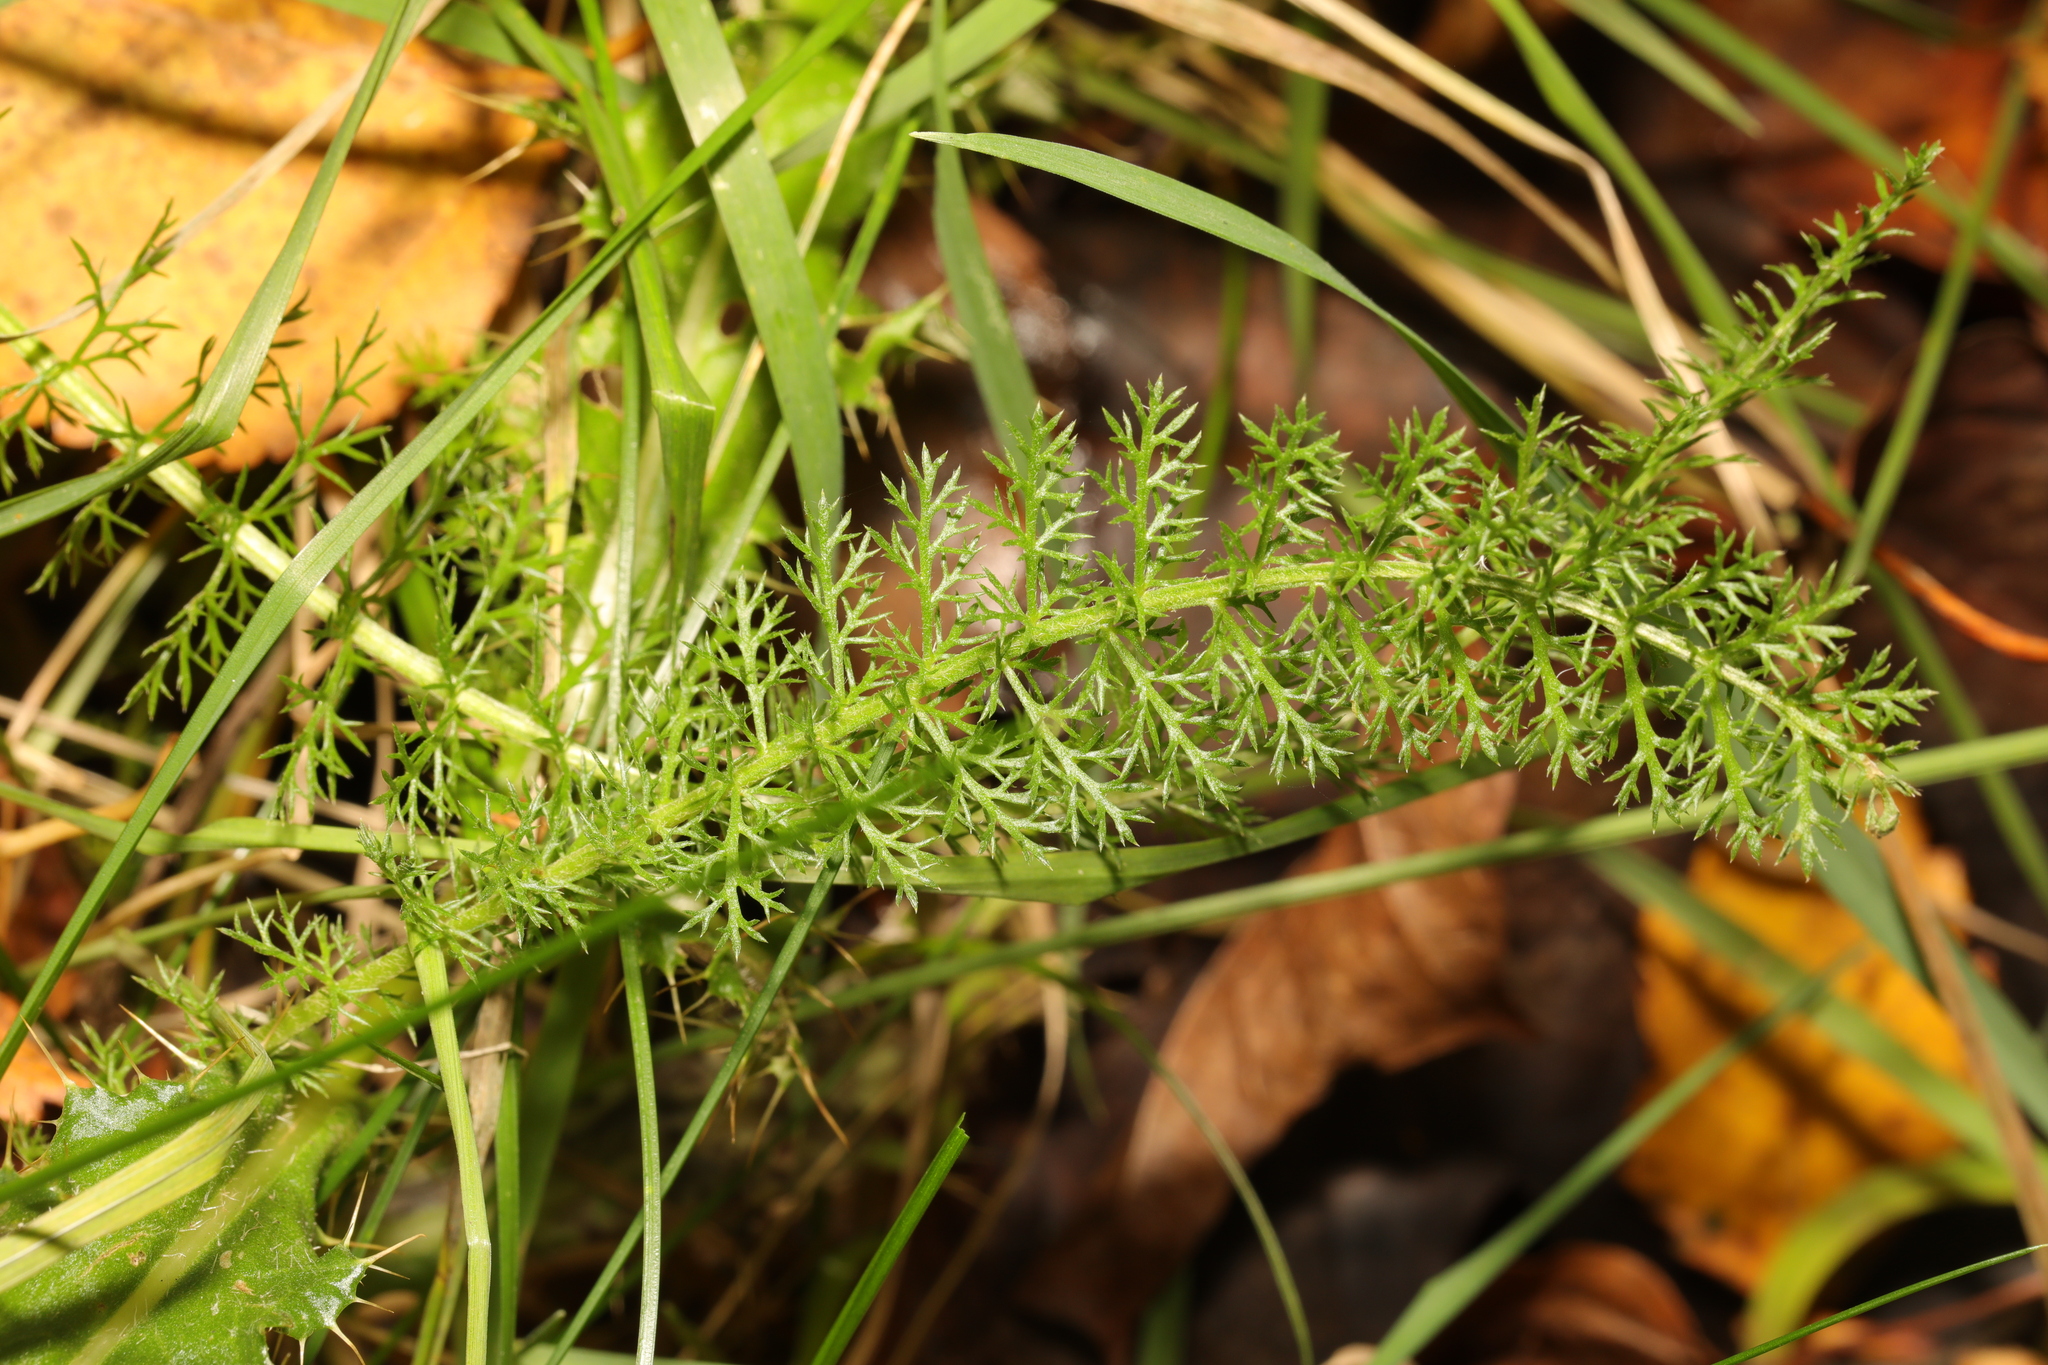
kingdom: Plantae
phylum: Tracheophyta
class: Magnoliopsida
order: Asterales
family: Asteraceae
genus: Achillea
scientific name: Achillea millefolium
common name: Yarrow
